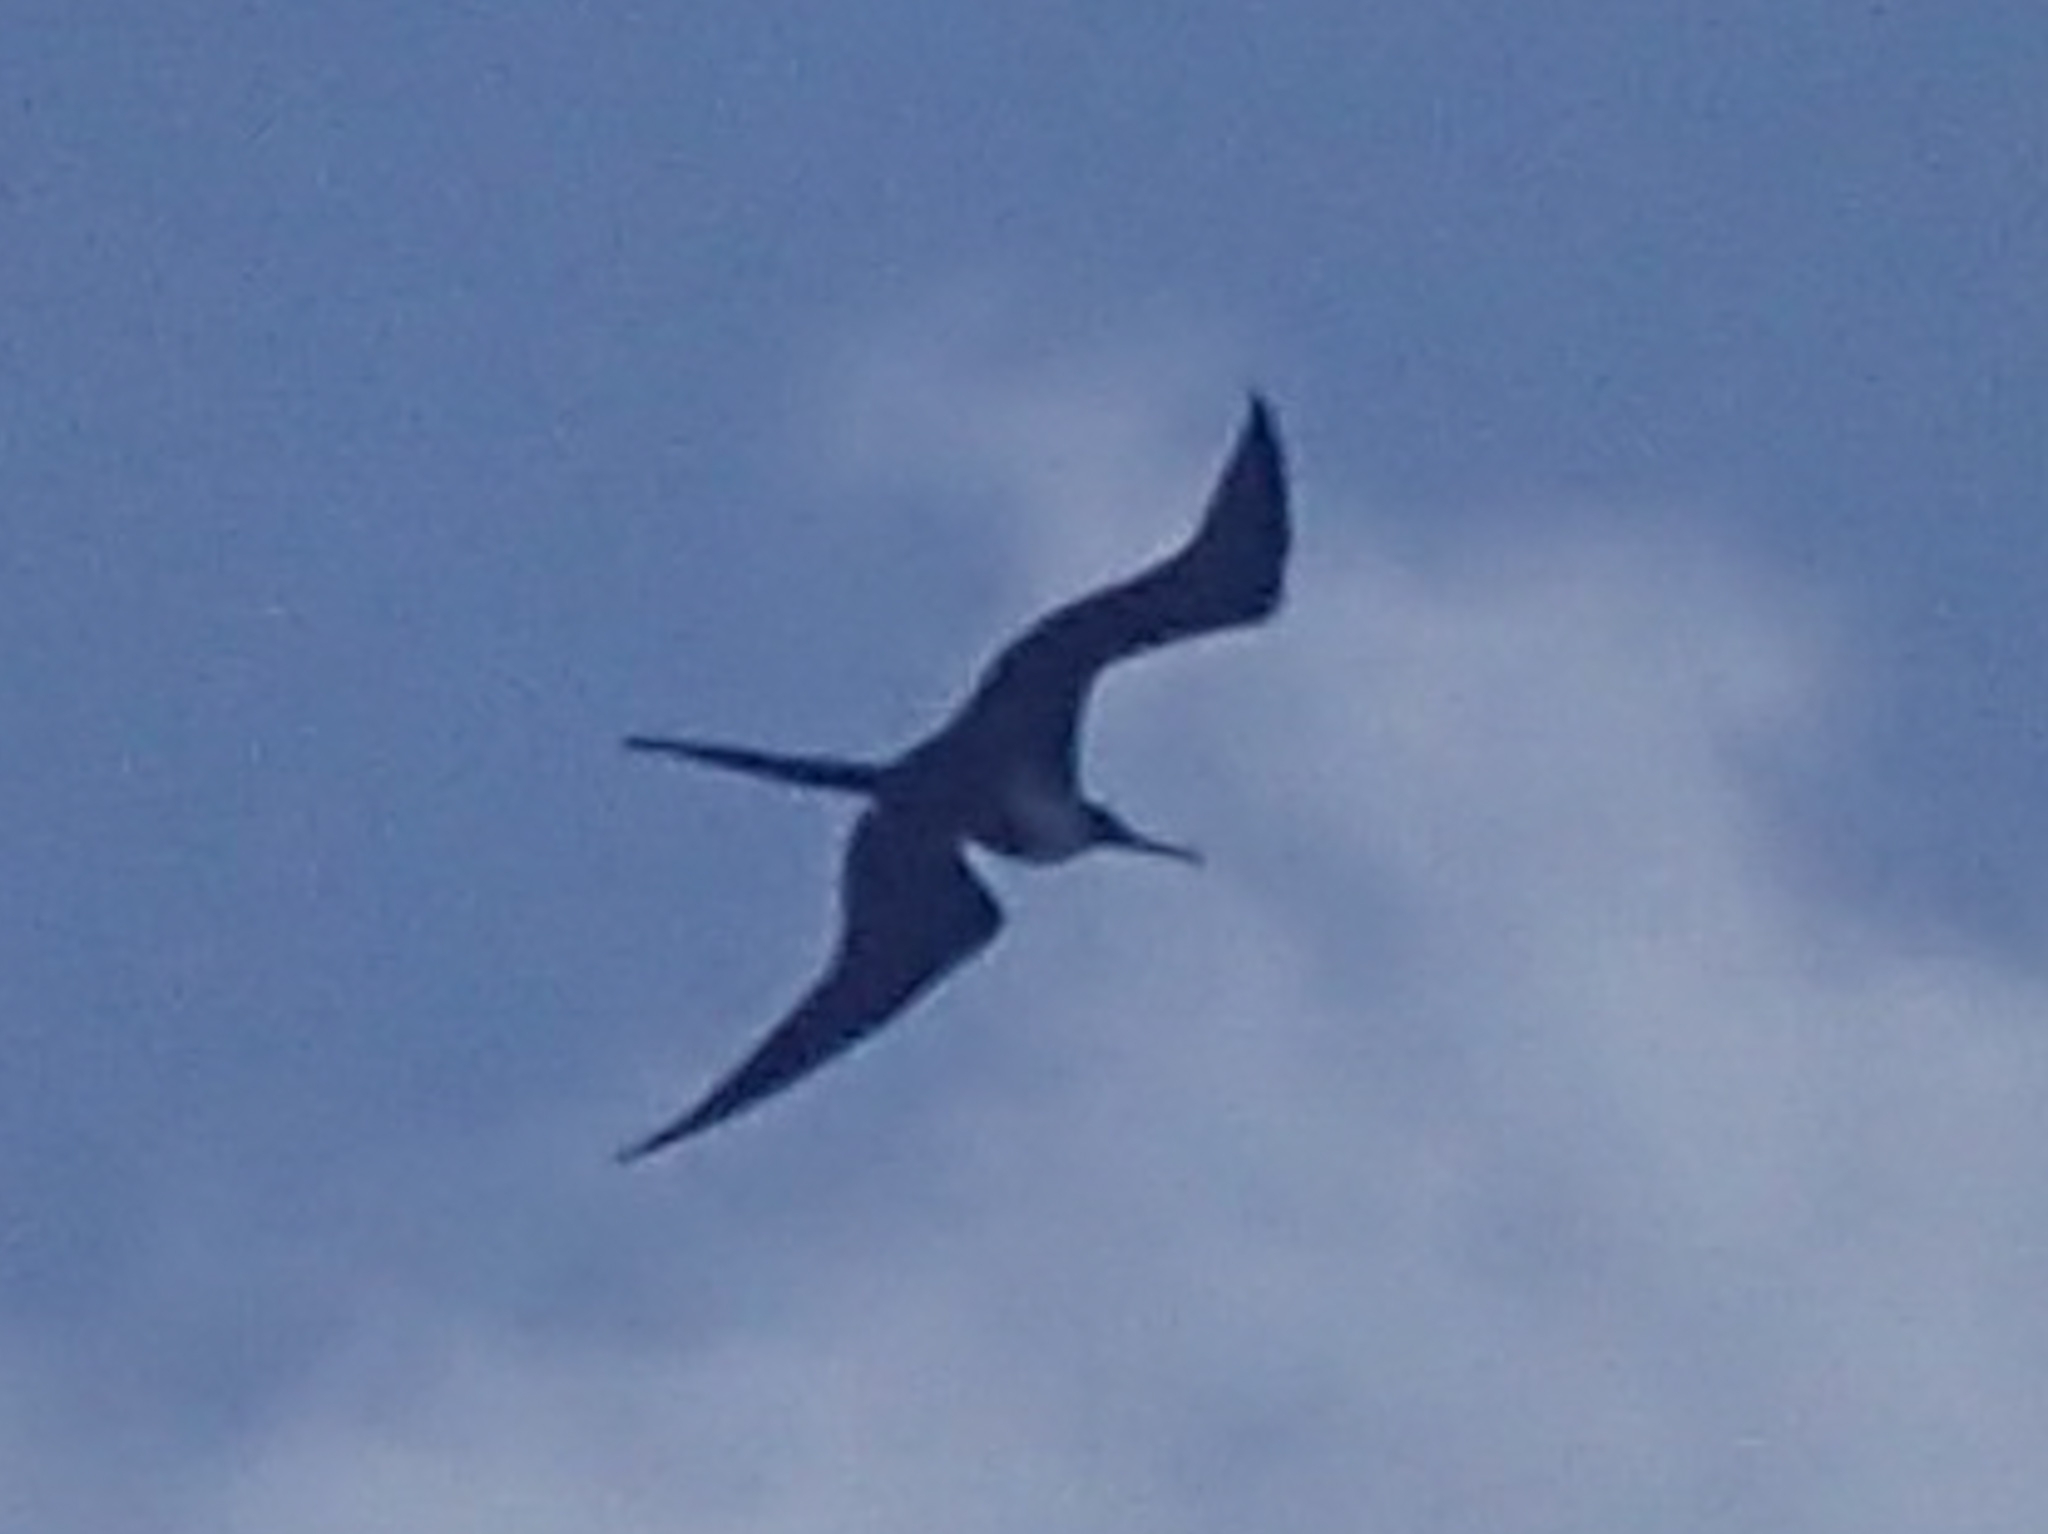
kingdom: Animalia
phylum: Chordata
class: Aves
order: Suliformes
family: Fregatidae
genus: Fregata
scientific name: Fregata magnificens
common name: Magnificent frigatebird
